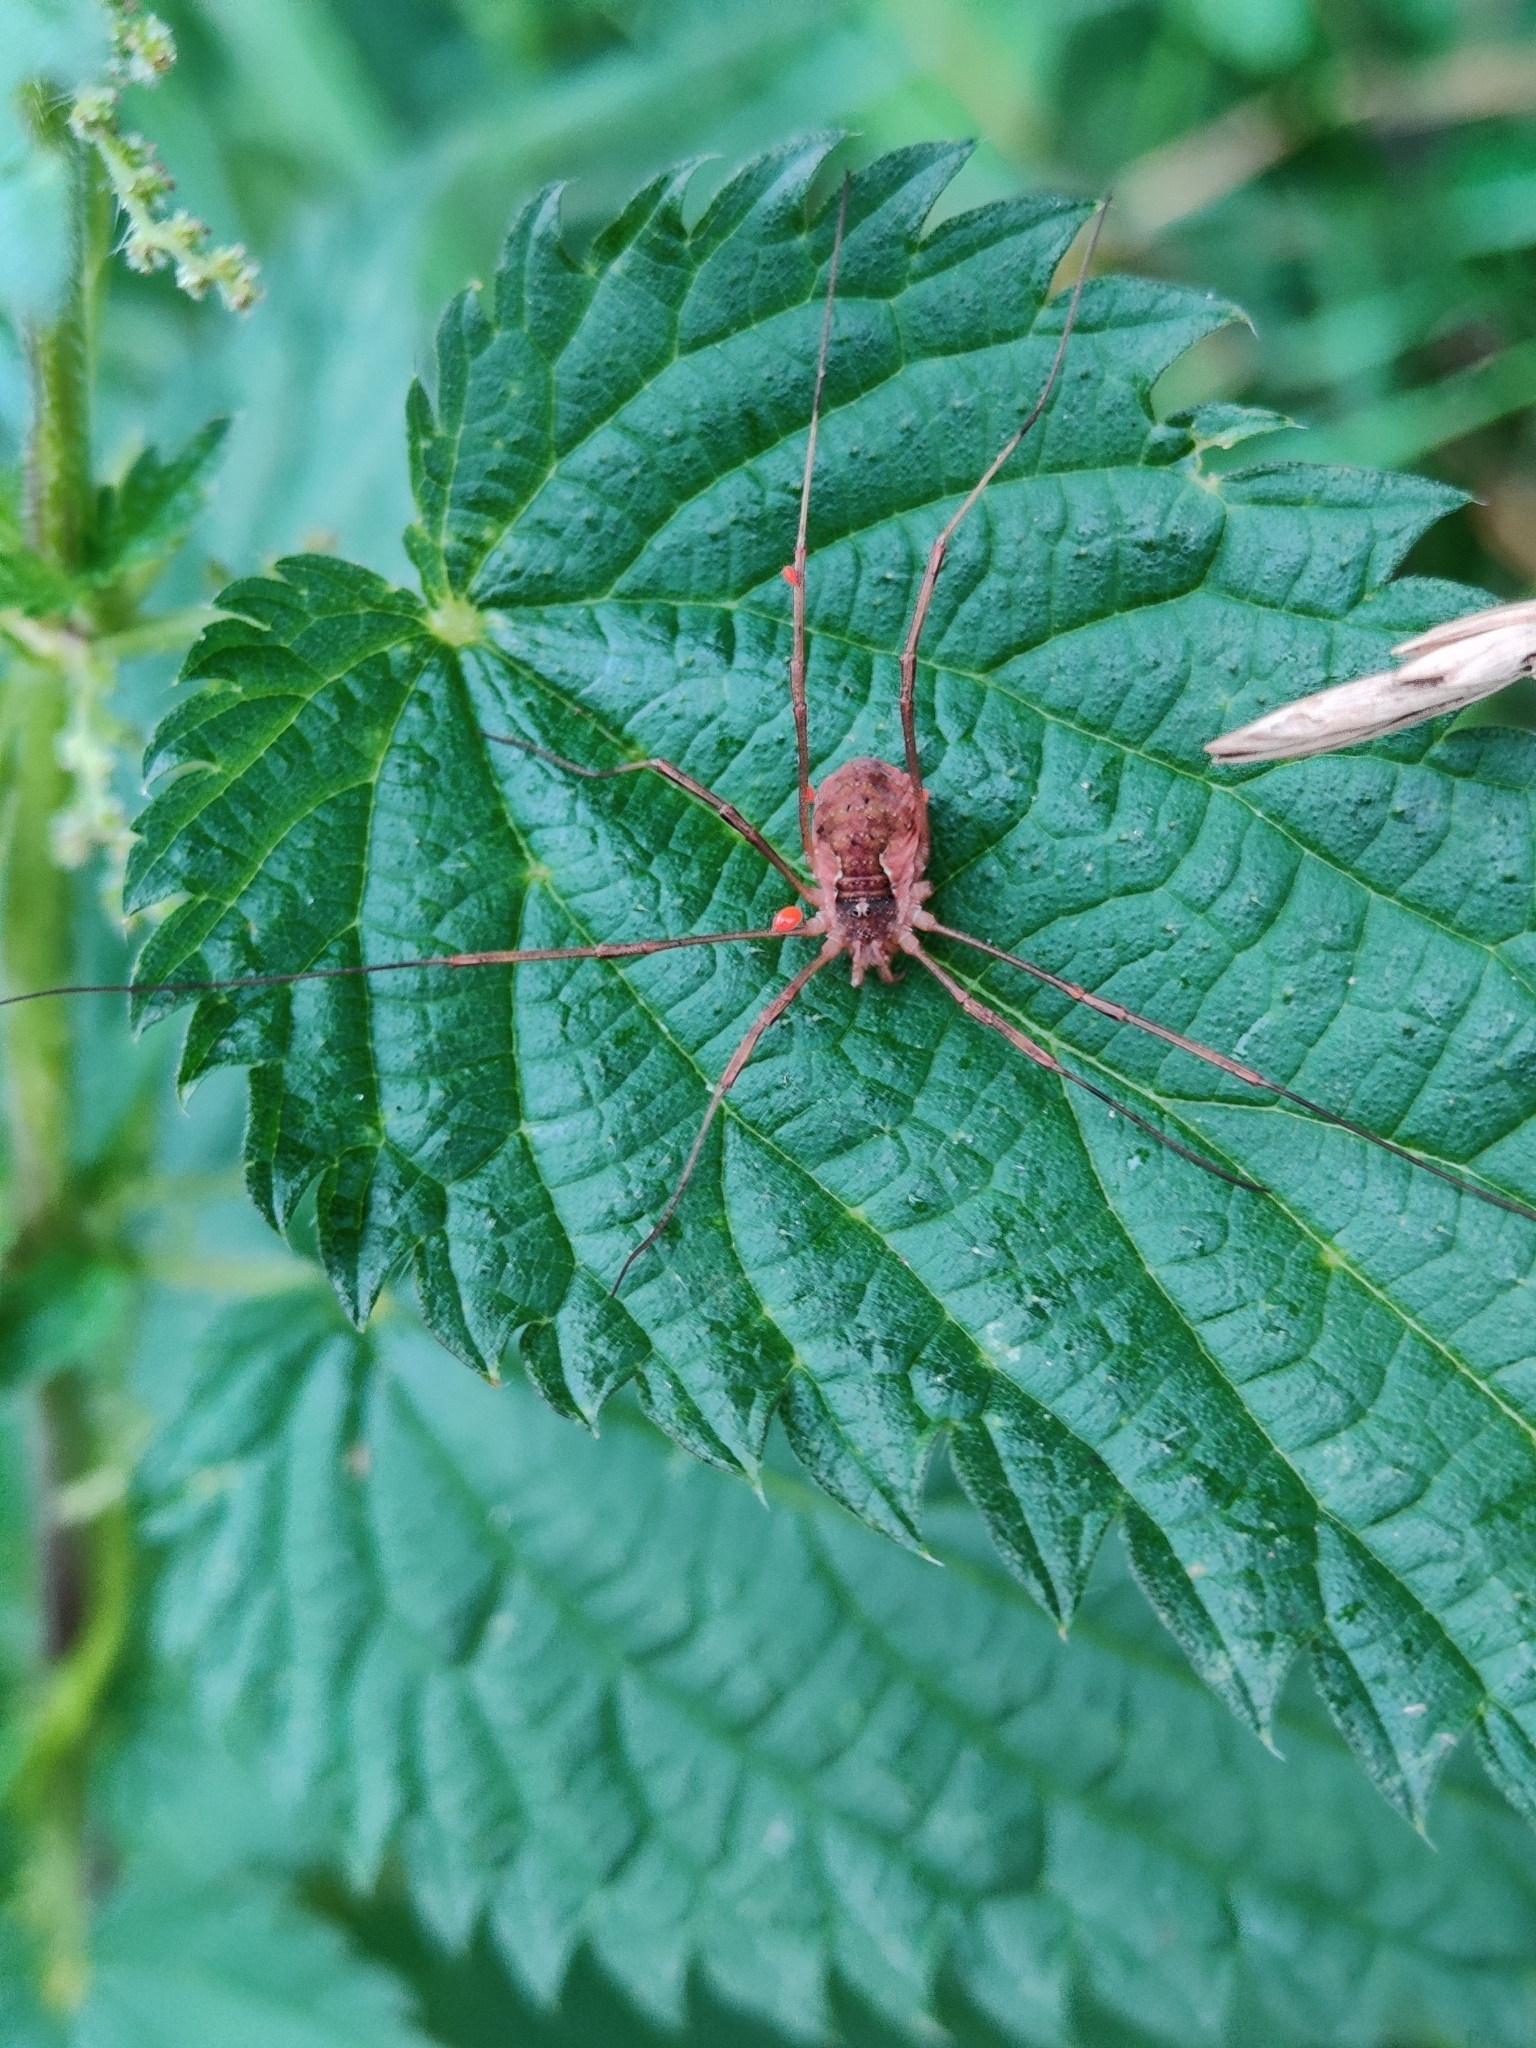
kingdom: Animalia
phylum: Arthropoda
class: Arachnida
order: Opiliones
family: Phalangiidae
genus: Mitopus
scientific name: Mitopus morio
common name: Saddleback harvestman
